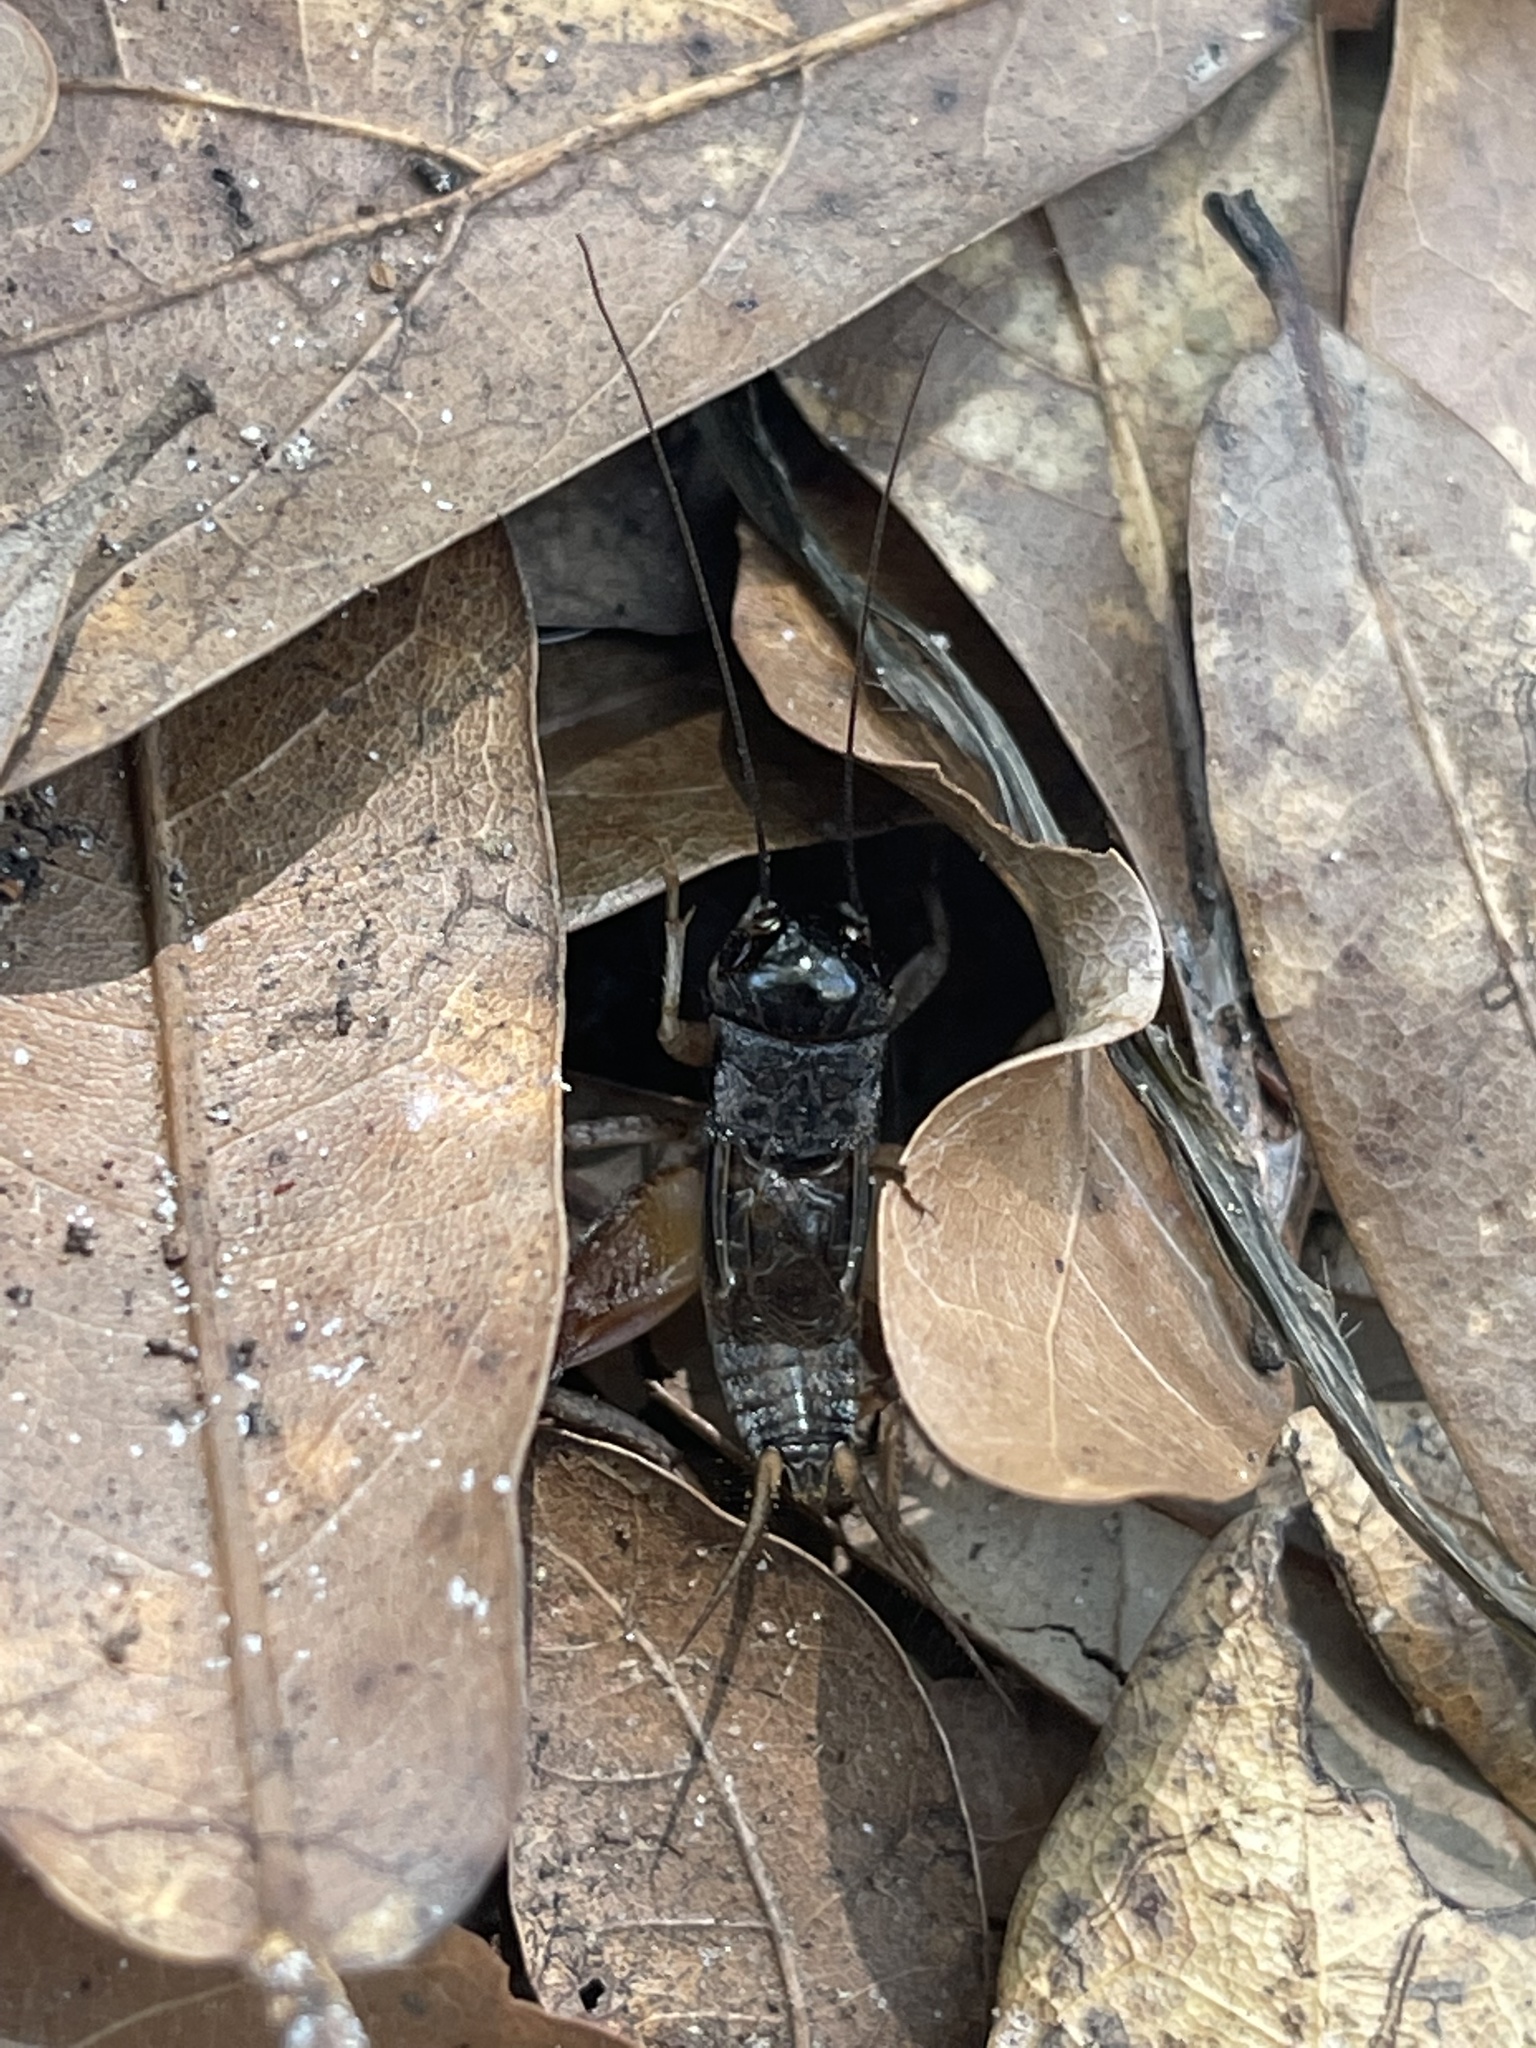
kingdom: Animalia
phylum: Arthropoda
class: Insecta
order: Orthoptera
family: Gryllidae
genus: Miogryllus
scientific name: Miogryllus verticalis
